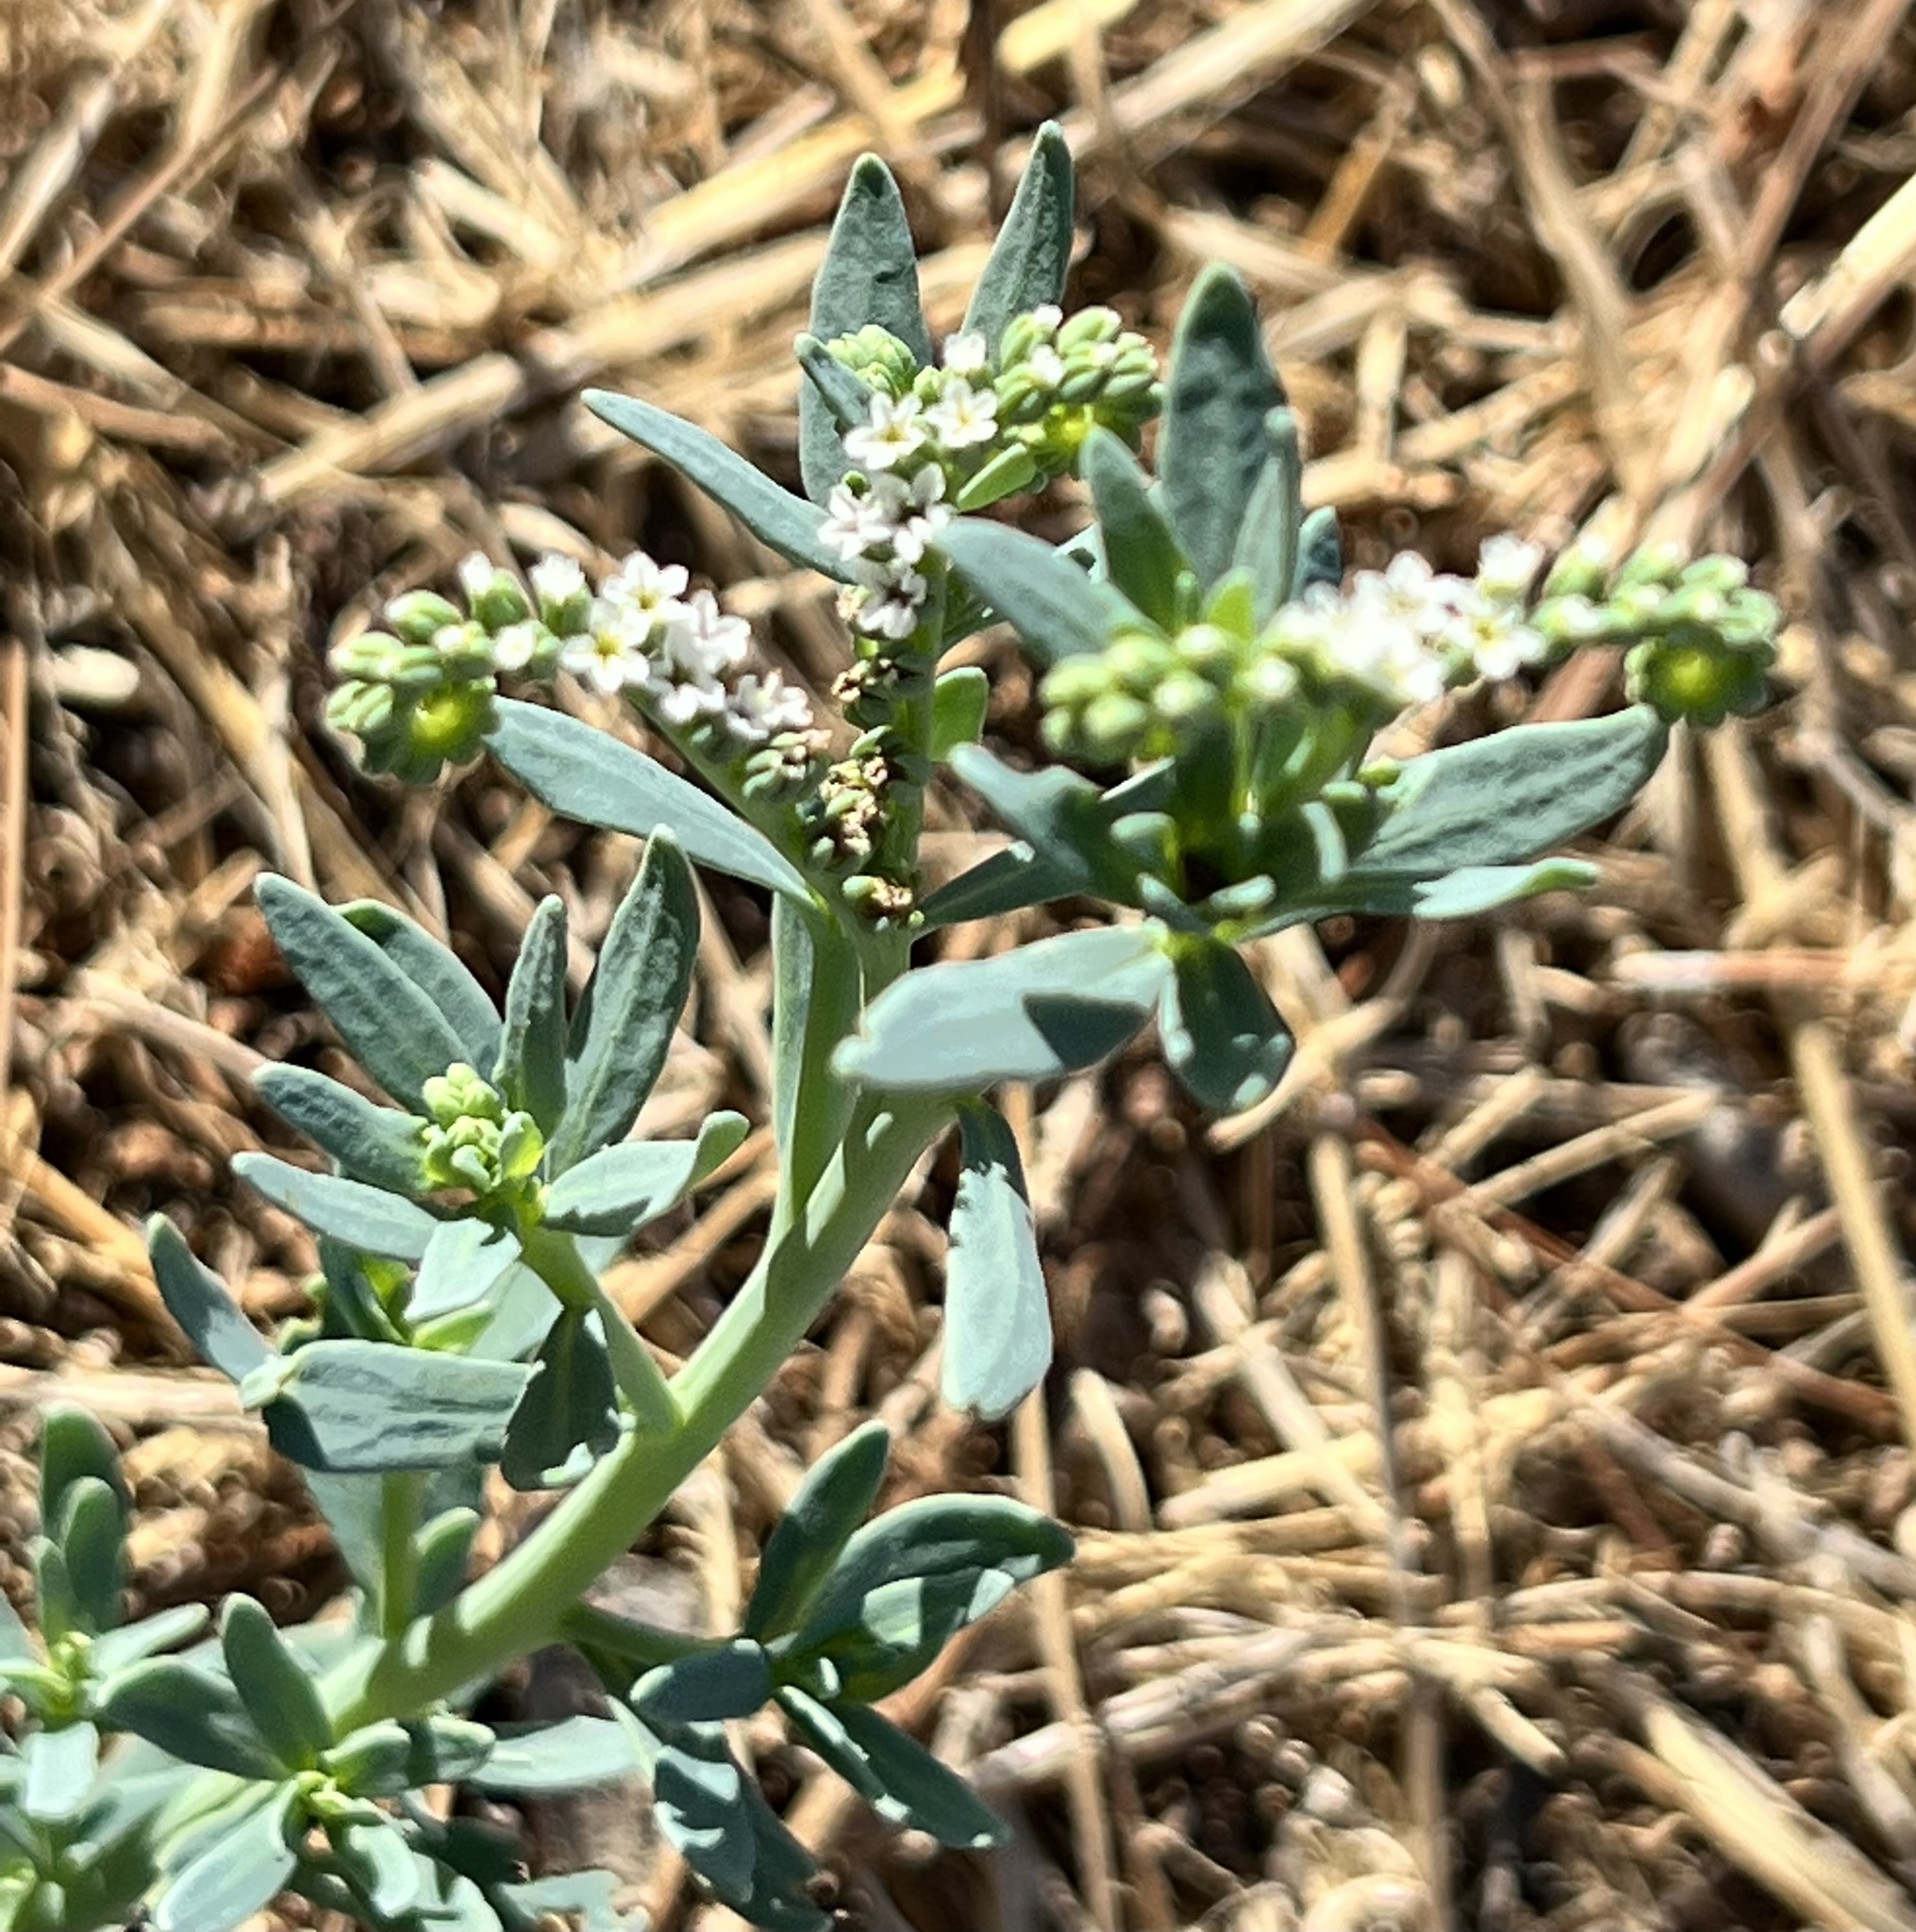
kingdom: Plantae
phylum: Tracheophyta
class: Magnoliopsida
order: Boraginales
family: Heliotropiaceae
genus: Heliotropium
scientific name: Heliotropium curassavicum
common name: Seaside heliotrope
